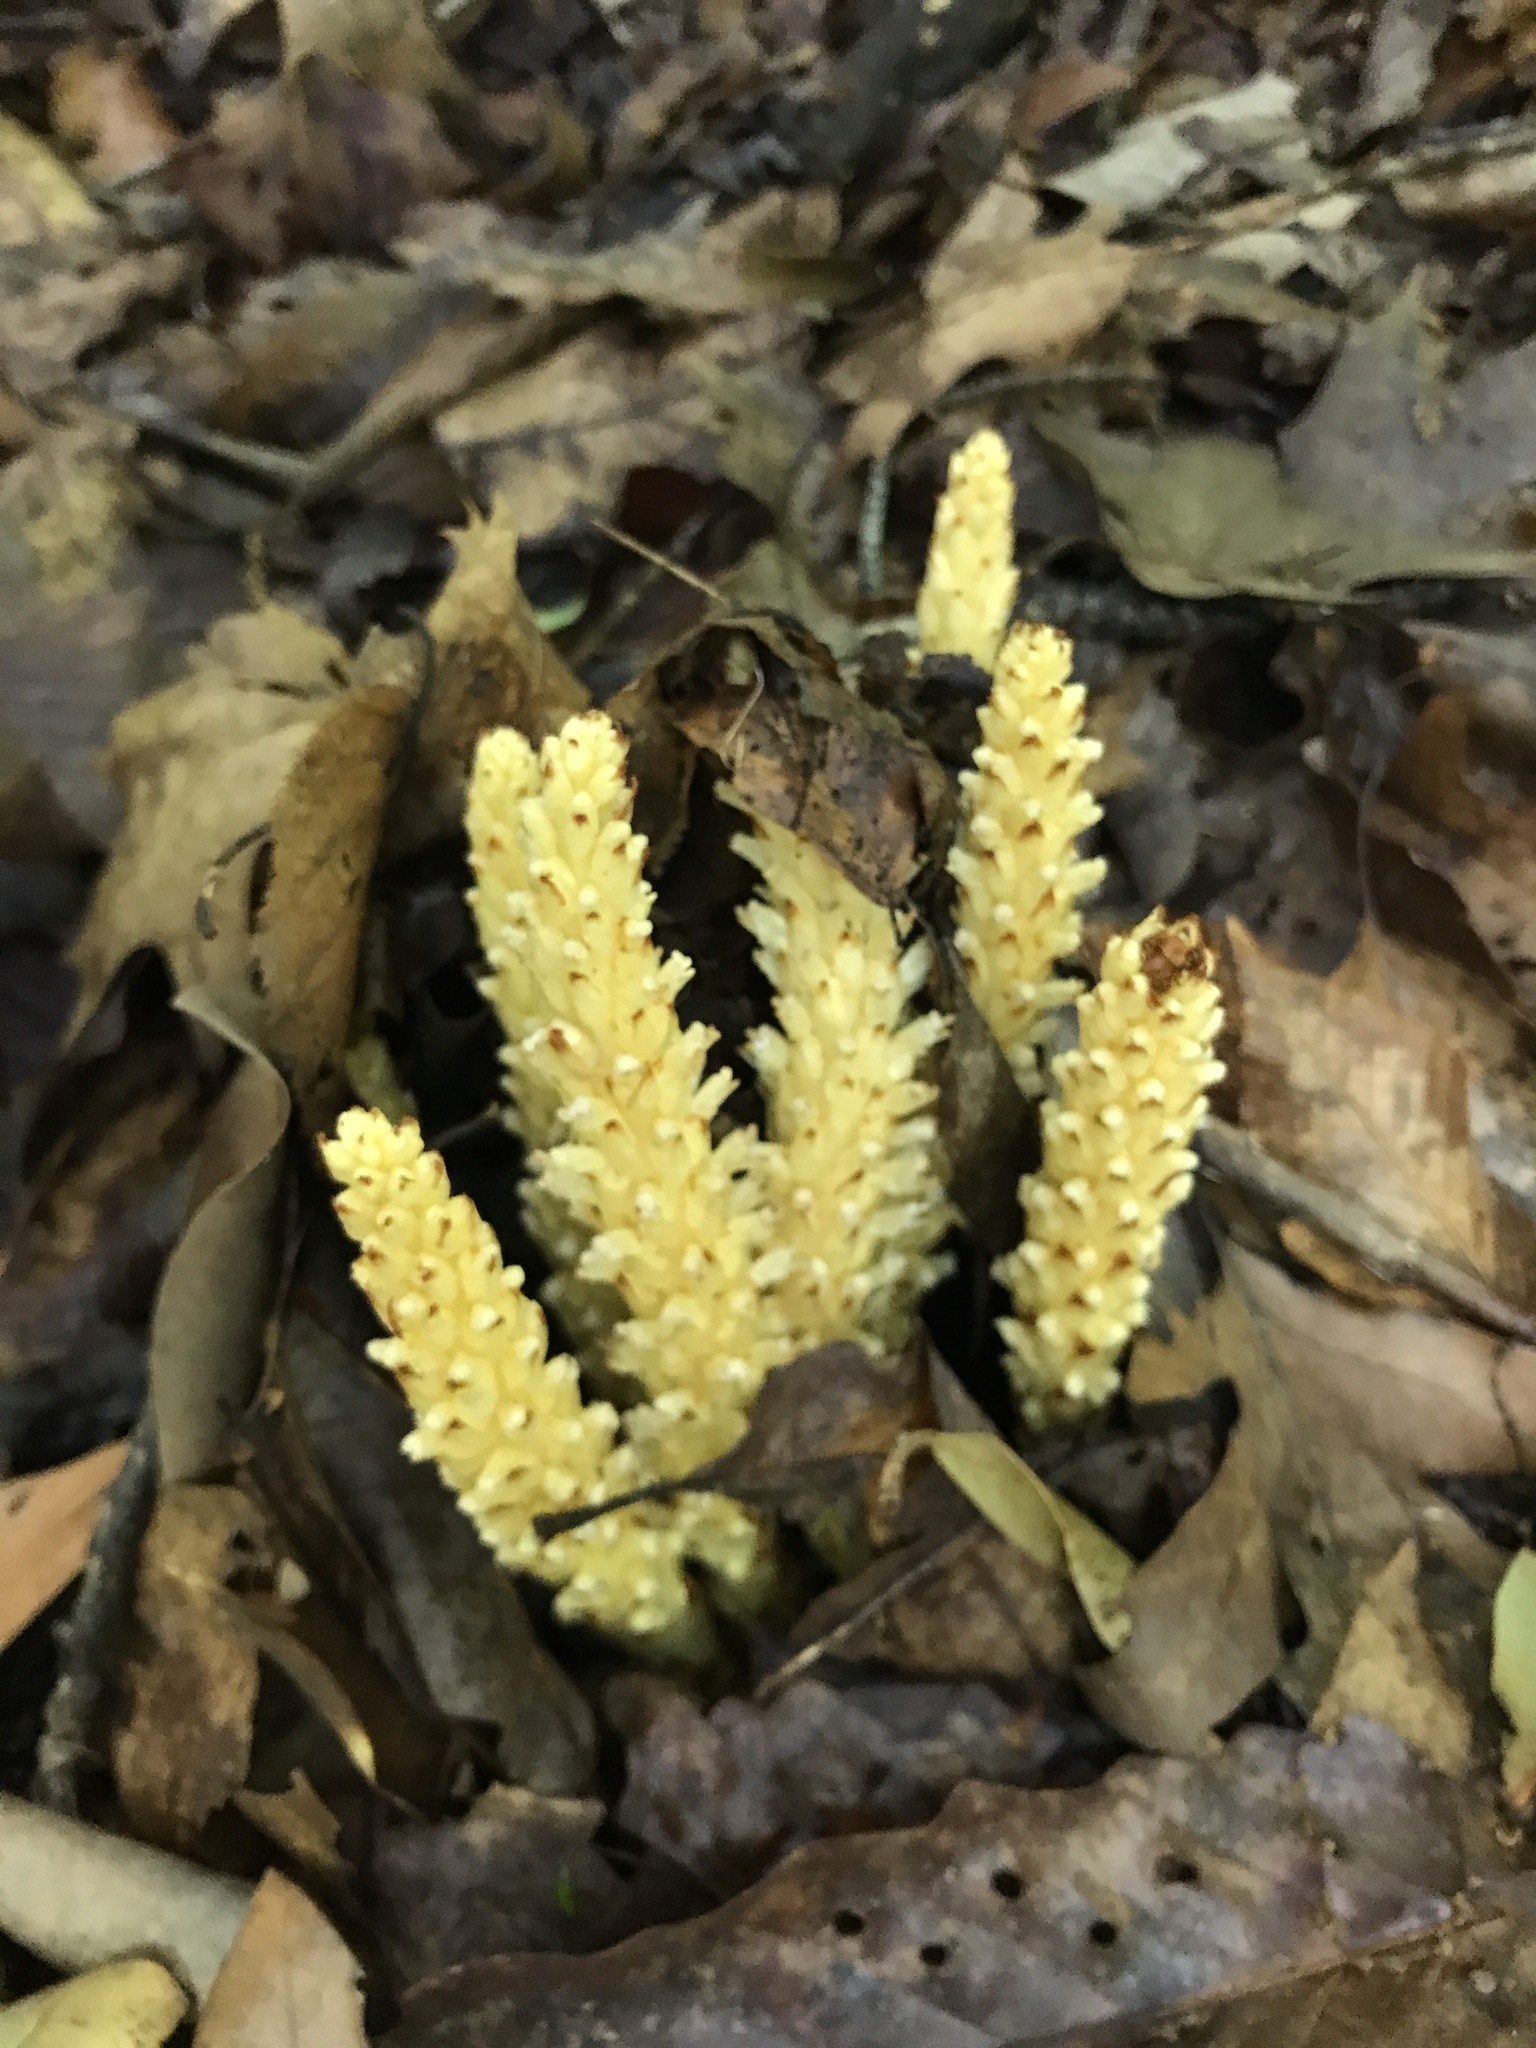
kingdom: Plantae
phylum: Tracheophyta
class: Magnoliopsida
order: Lamiales
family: Orobanchaceae
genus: Conopholis
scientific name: Conopholis americana
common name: American cancer-root
